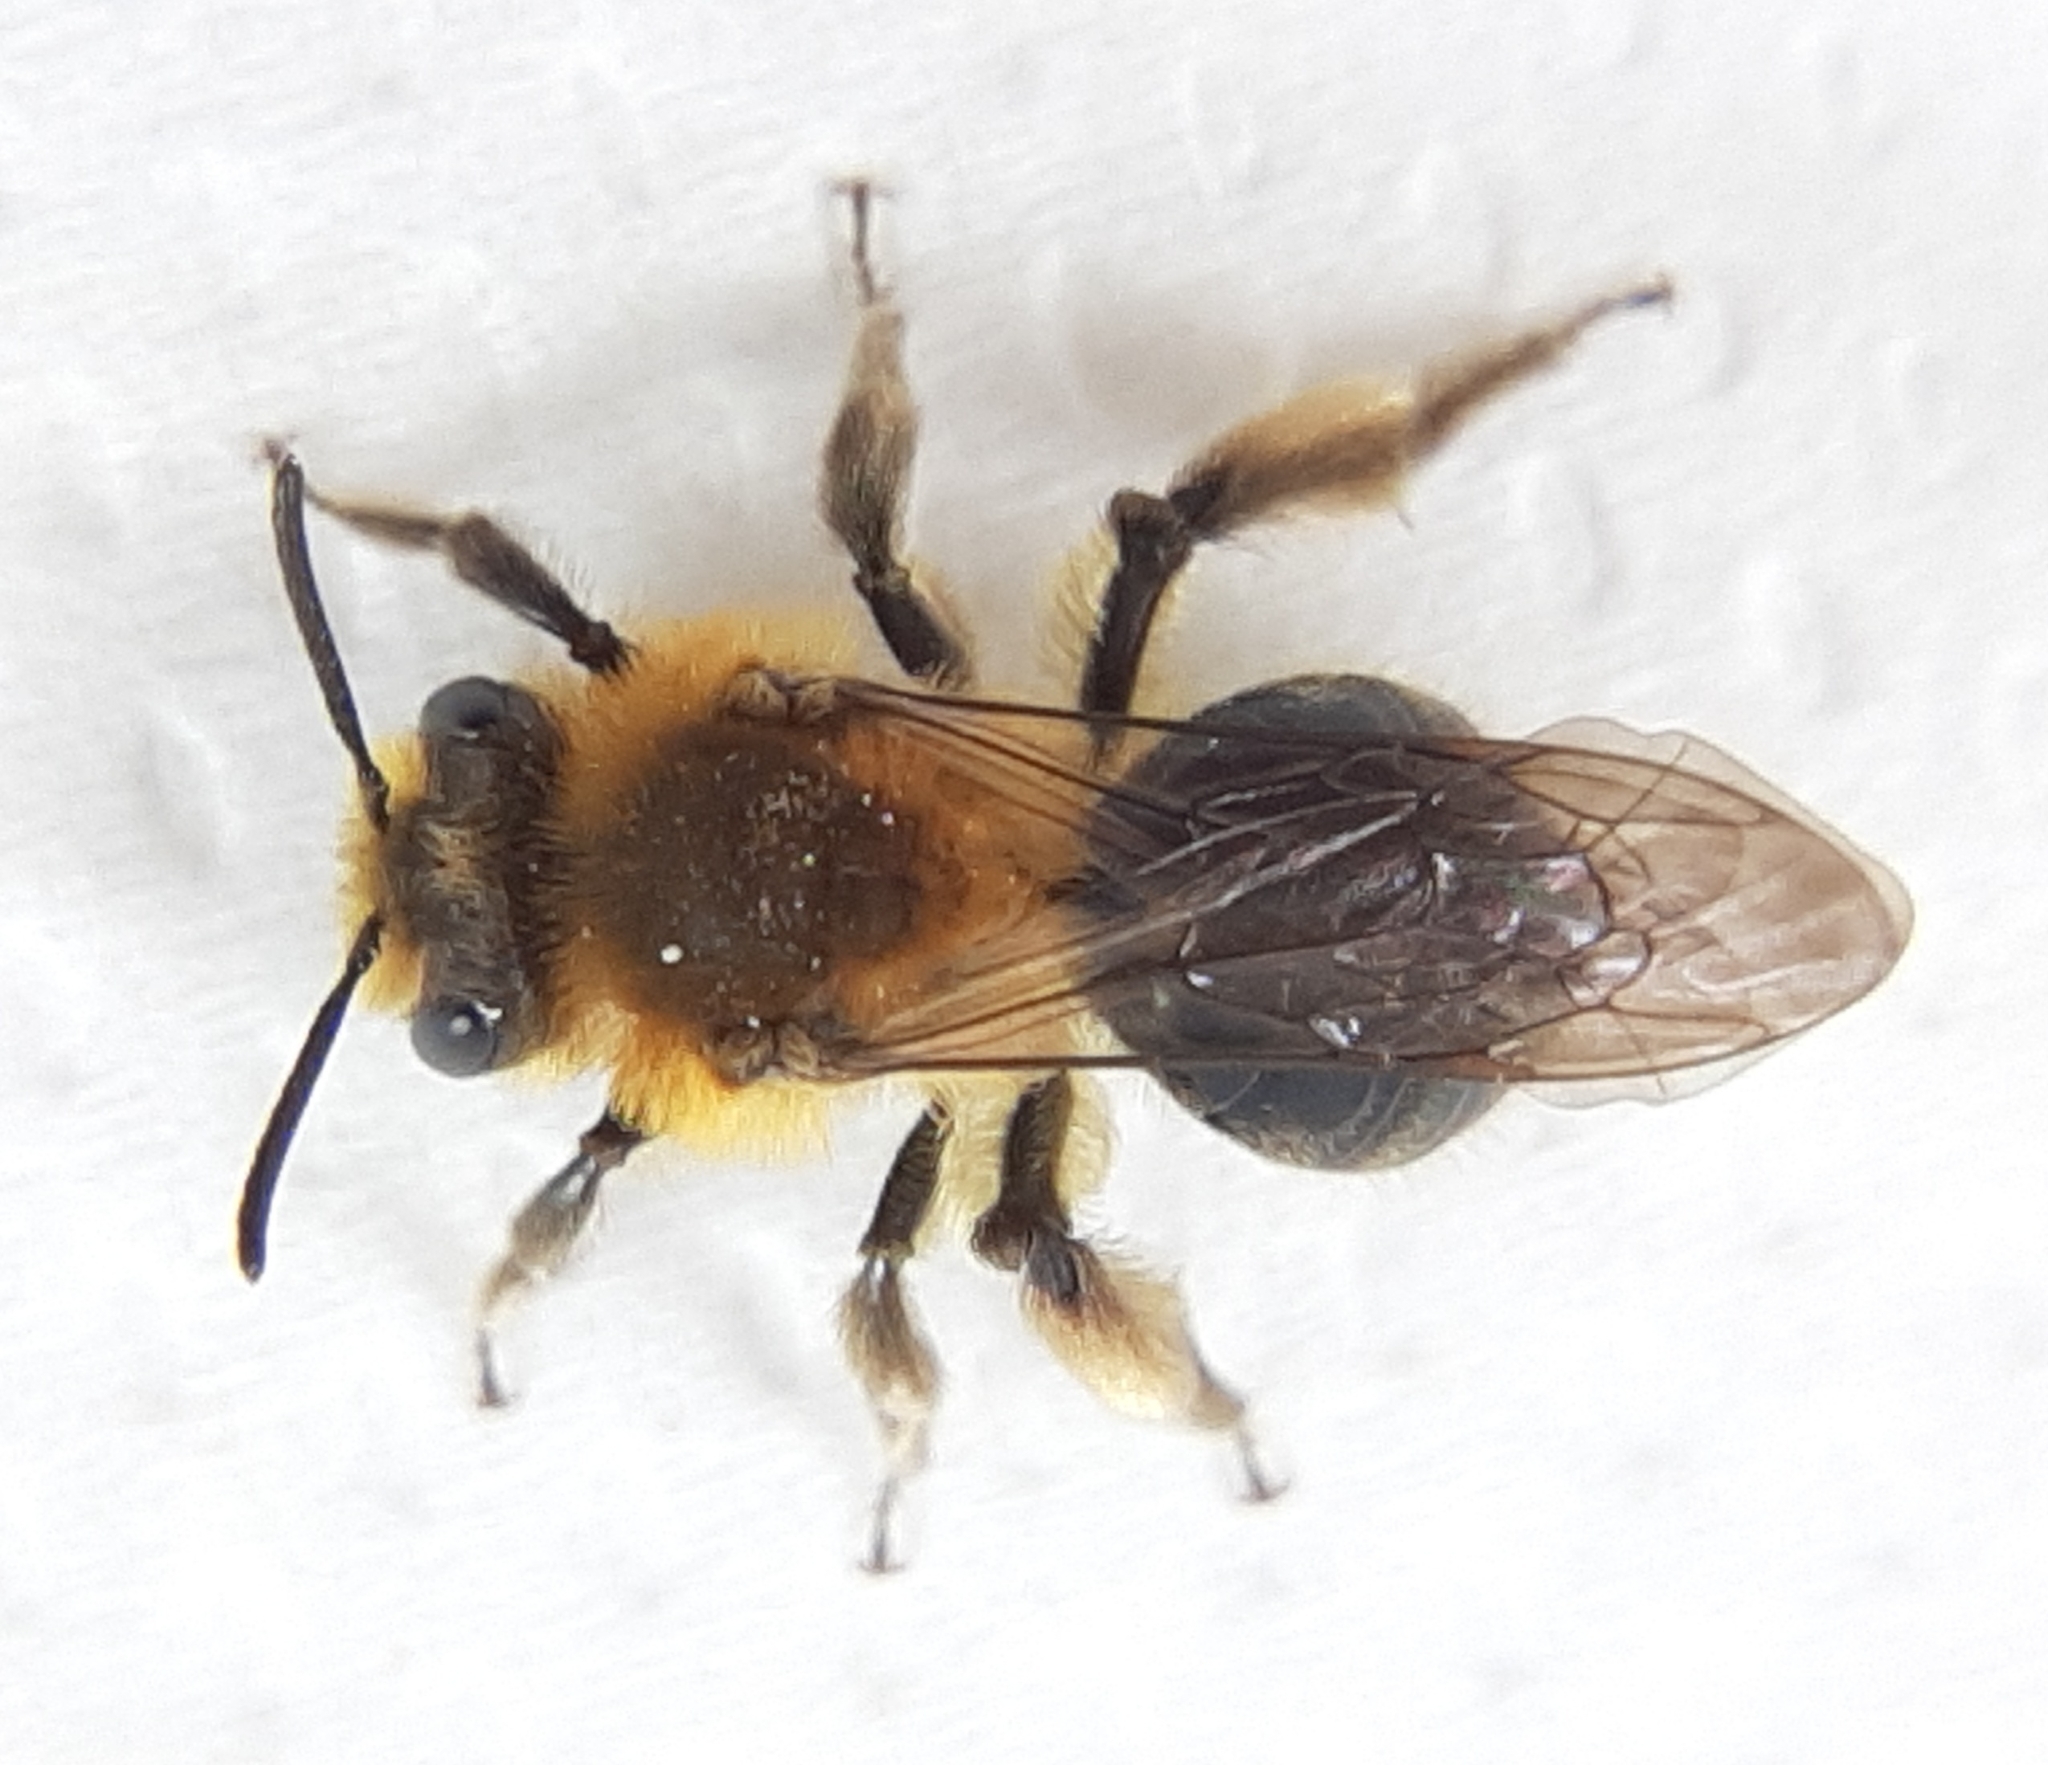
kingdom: Animalia
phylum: Arthropoda
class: Insecta
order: Hymenoptera
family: Andrenidae
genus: Andrena
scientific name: Andrena dunningi
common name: Dunning's miner
